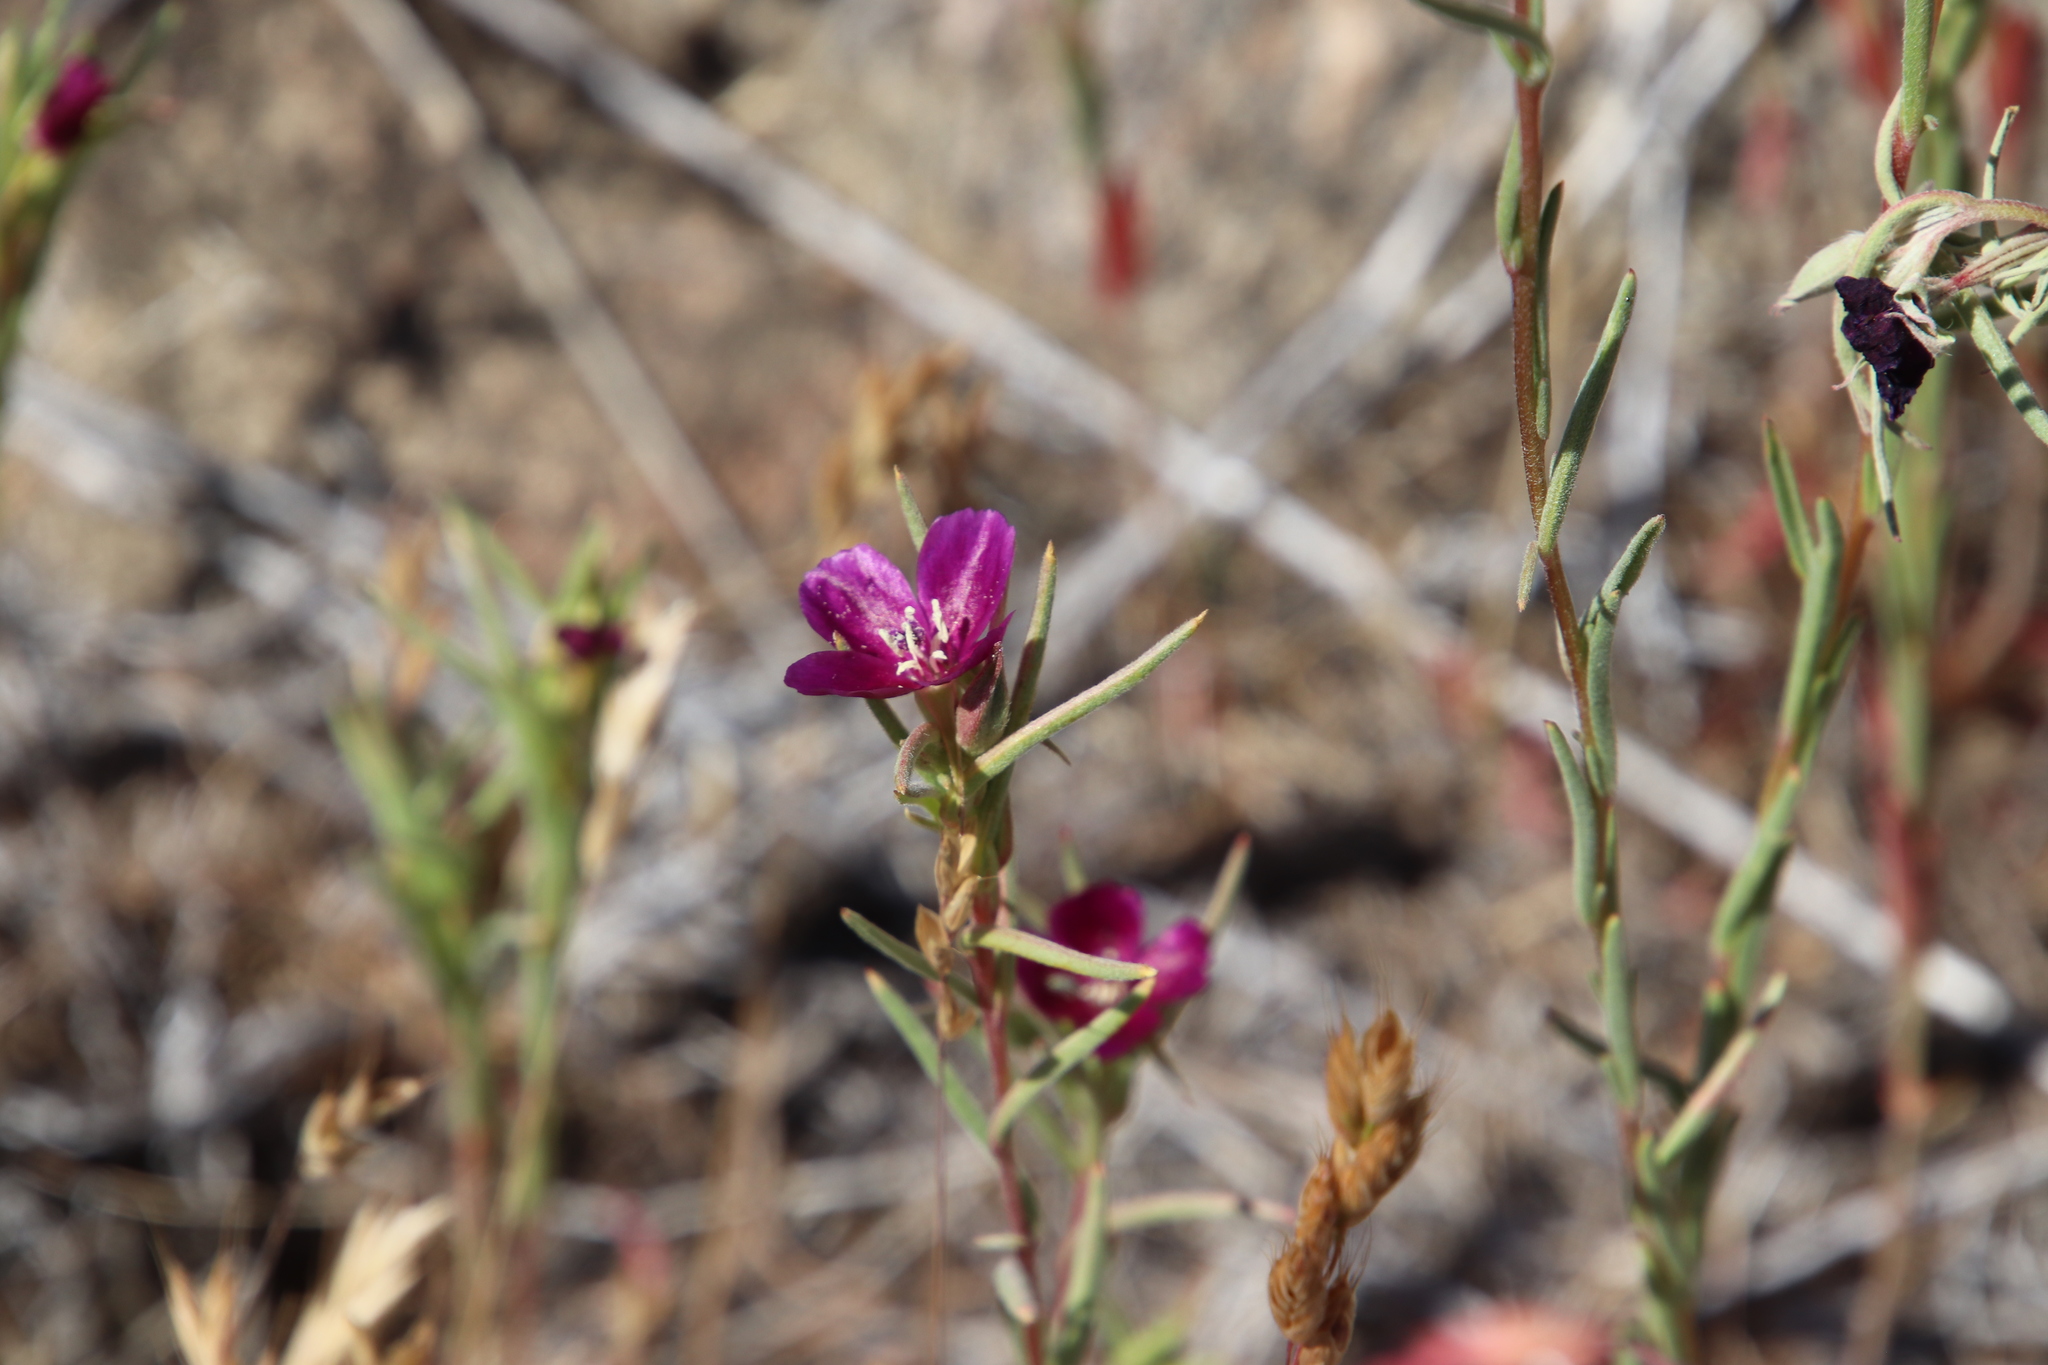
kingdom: Plantae
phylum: Tracheophyta
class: Magnoliopsida
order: Myrtales
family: Onagraceae
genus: Clarkia
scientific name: Clarkia purpurea
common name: Purple clarkia
